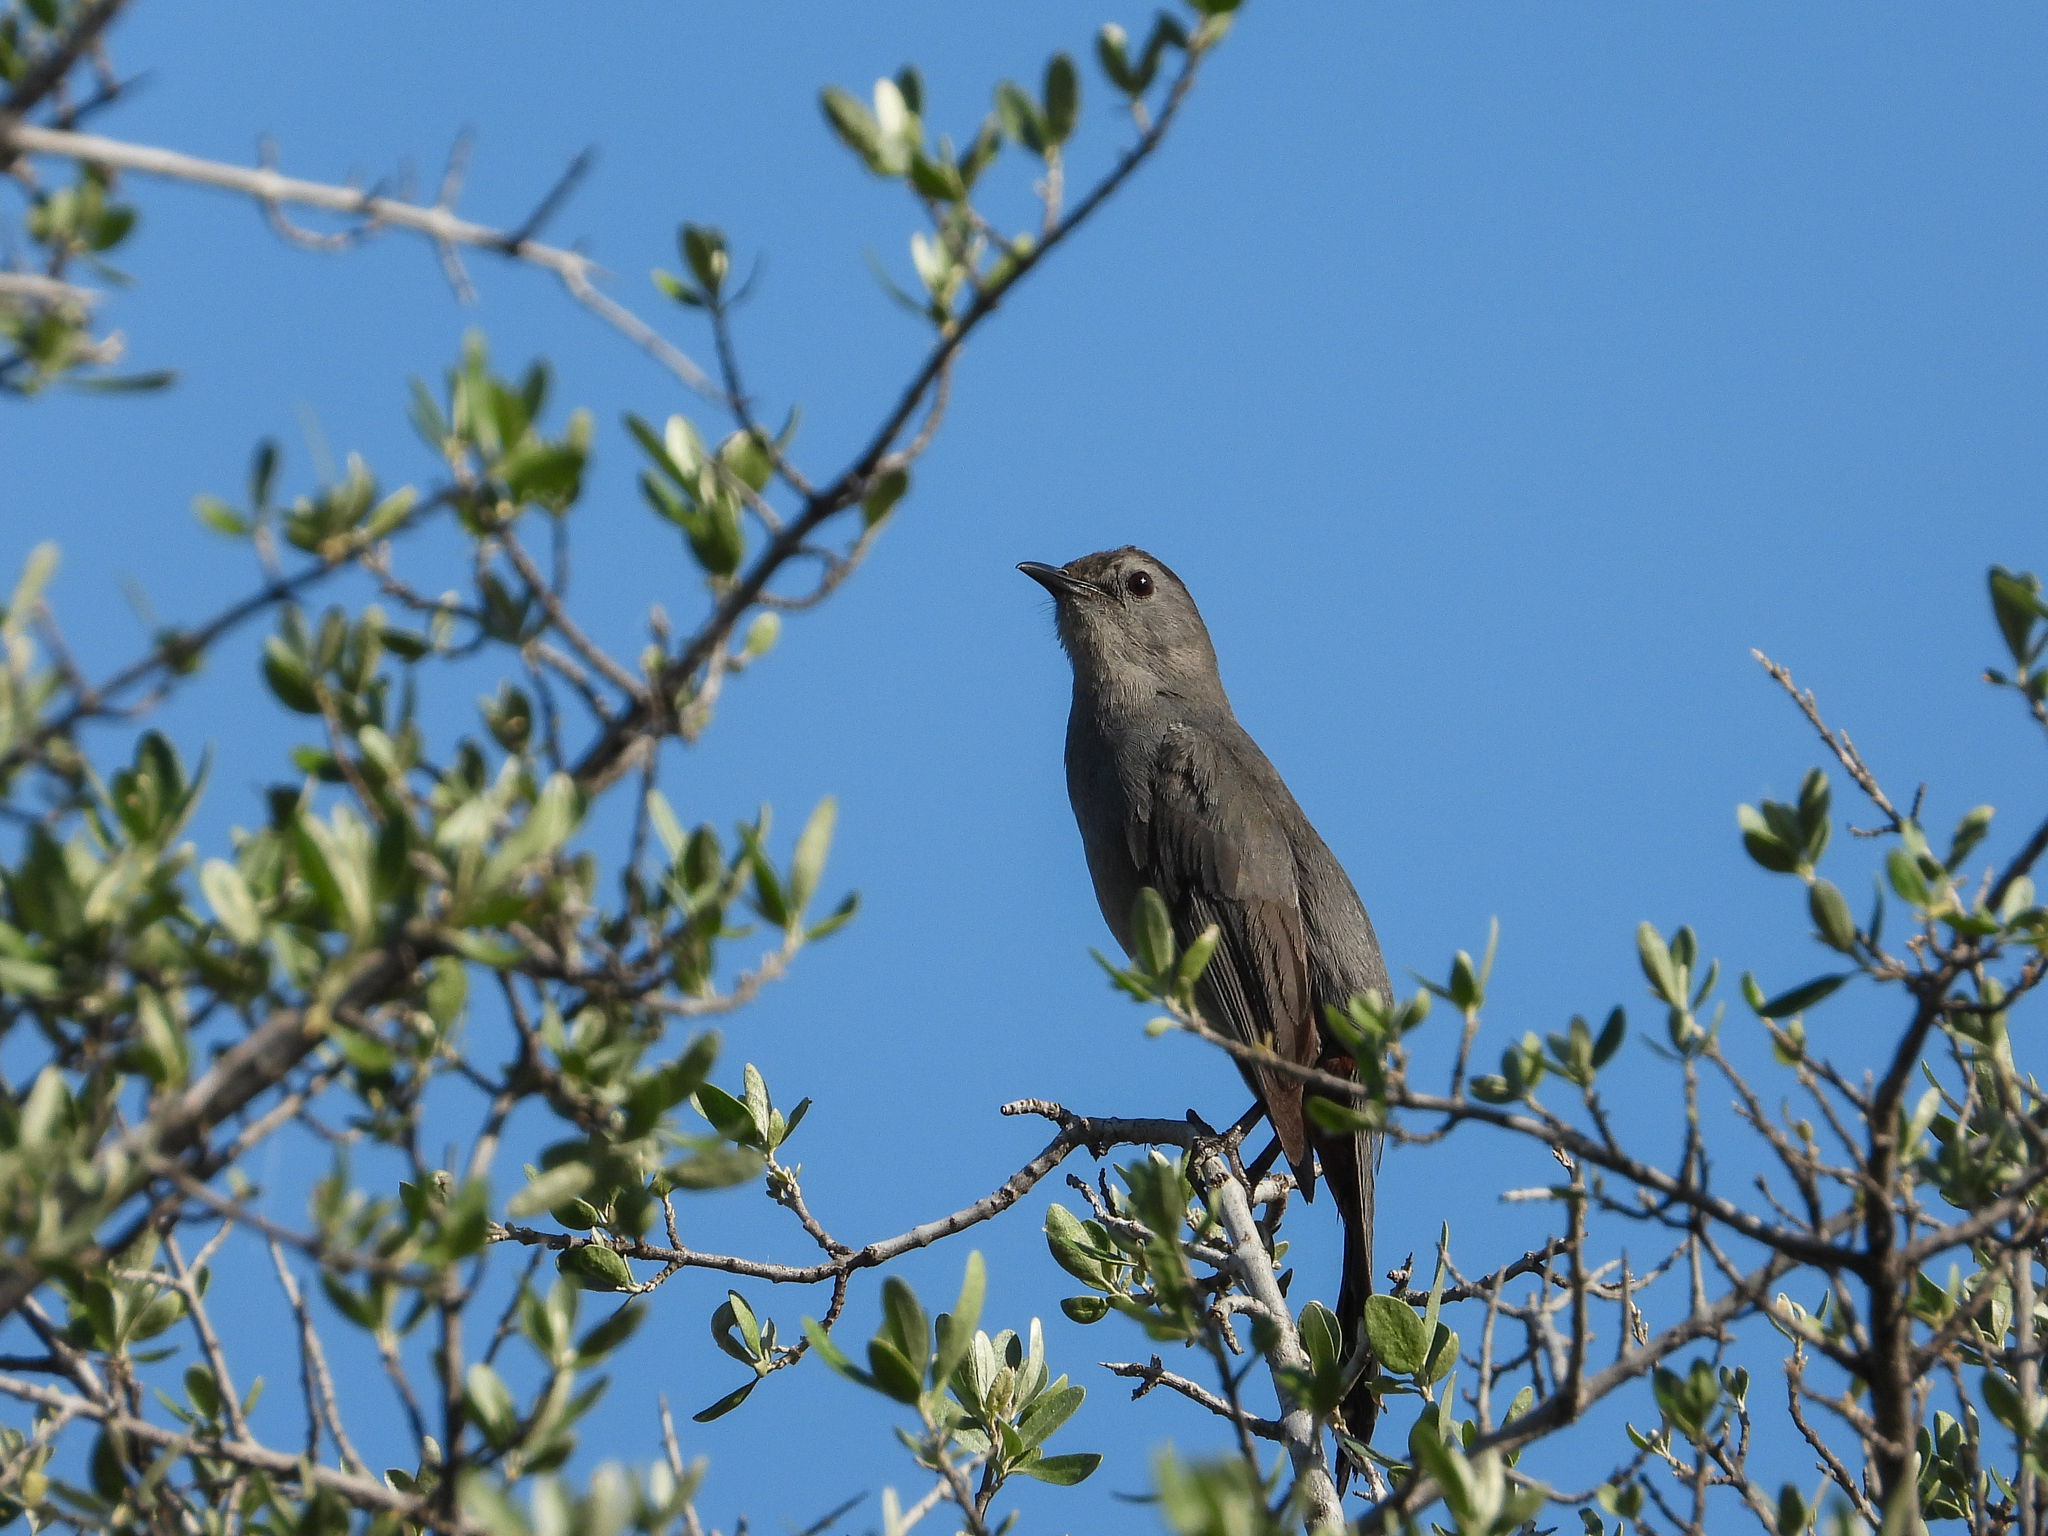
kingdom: Animalia
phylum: Chordata
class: Aves
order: Passeriformes
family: Mimidae
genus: Dumetella
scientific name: Dumetella carolinensis
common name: Gray catbird
